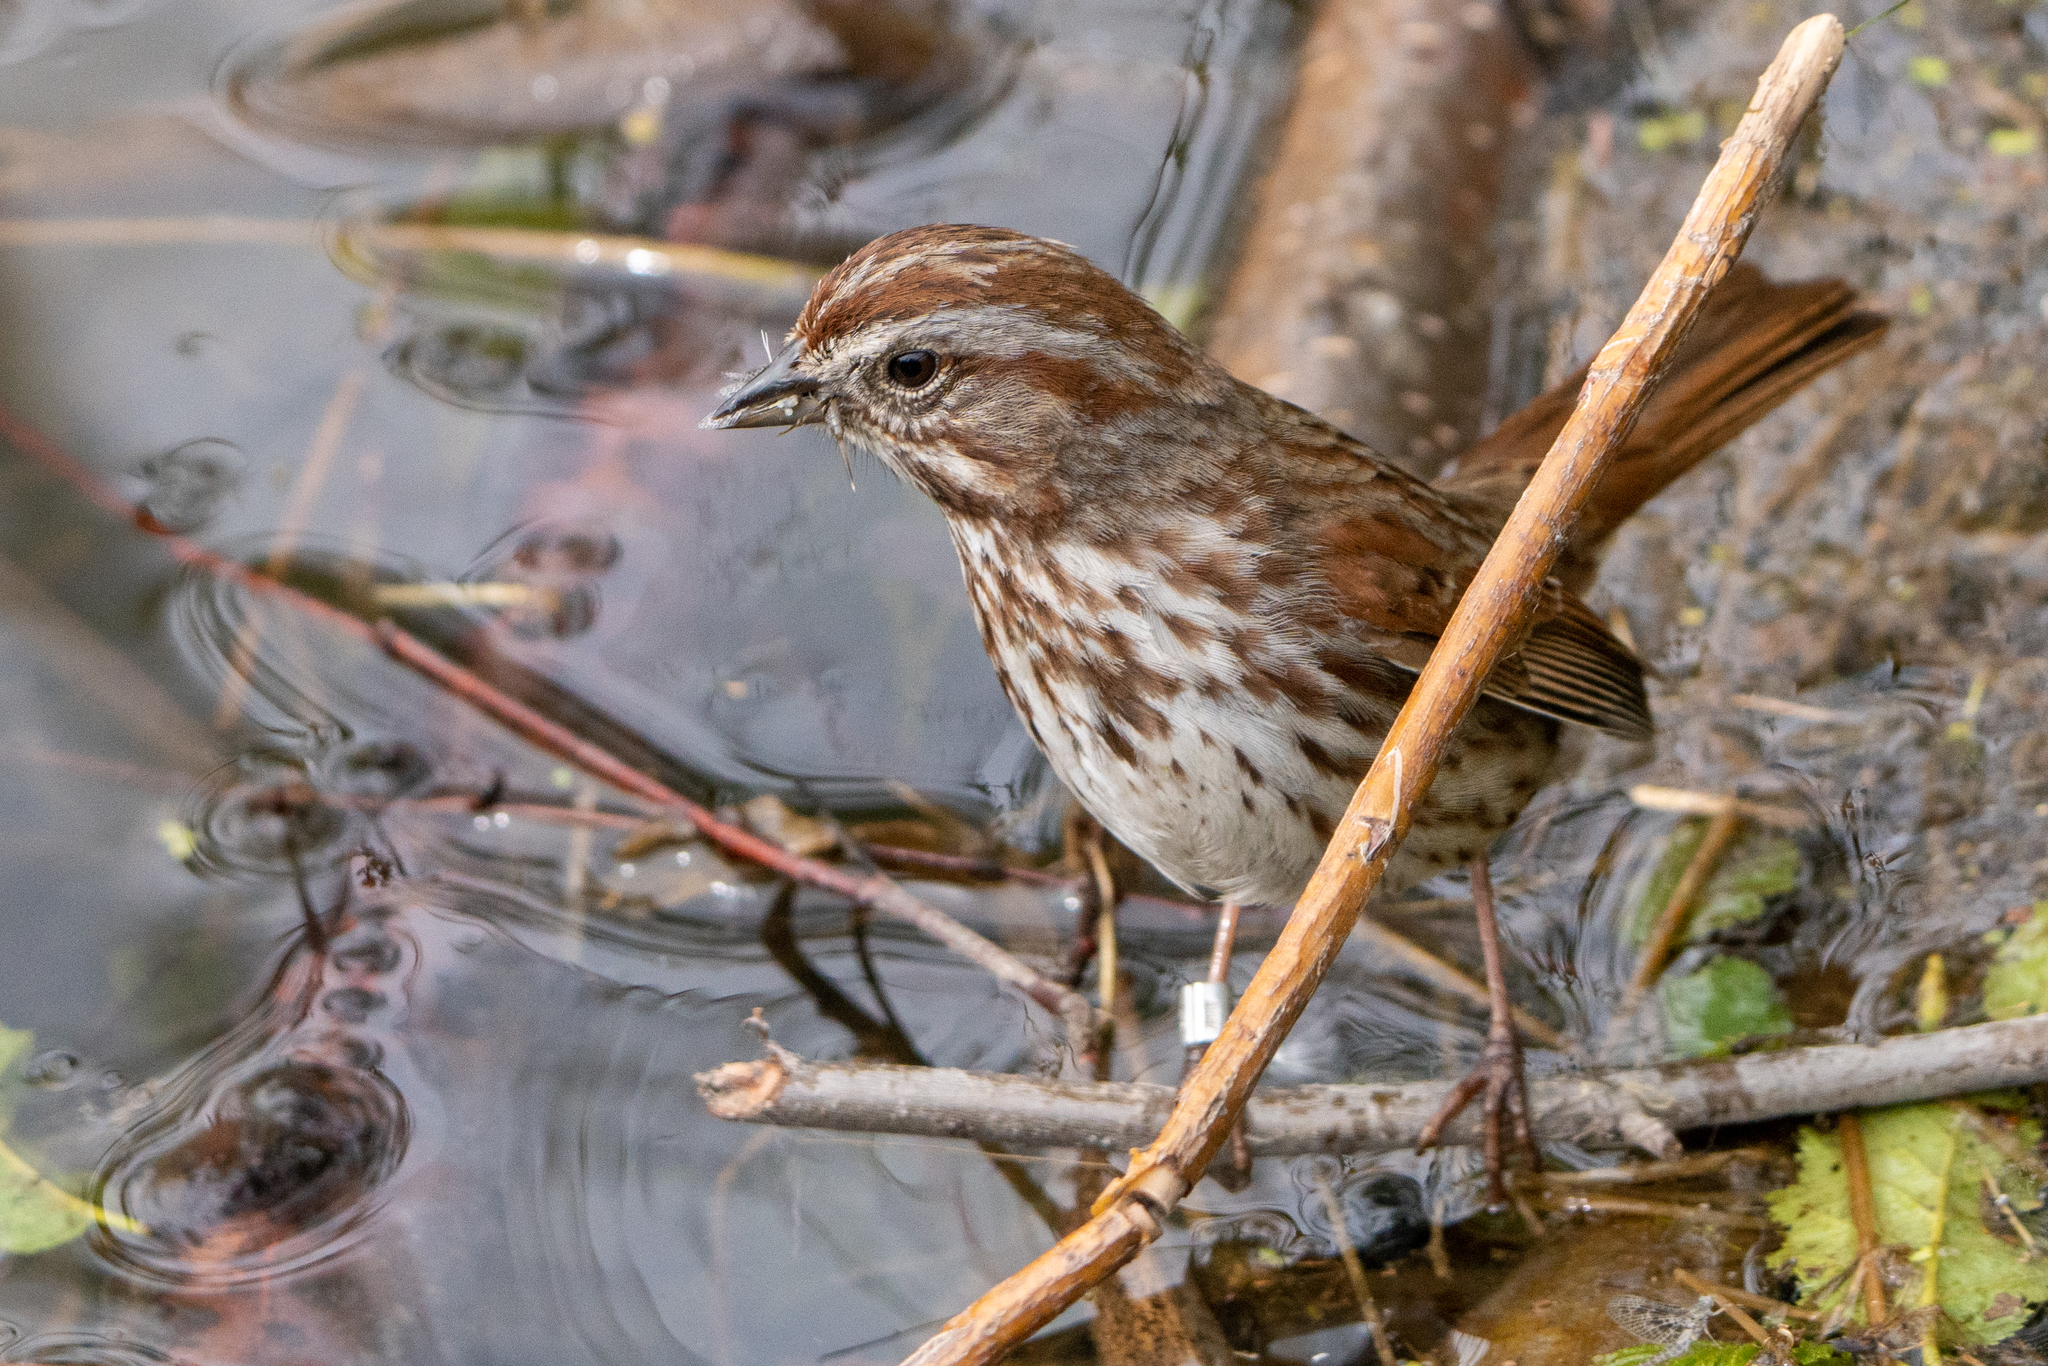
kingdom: Animalia
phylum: Chordata
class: Aves
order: Passeriformes
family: Passerellidae
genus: Melospiza
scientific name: Melospiza melodia
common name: Song sparrow
